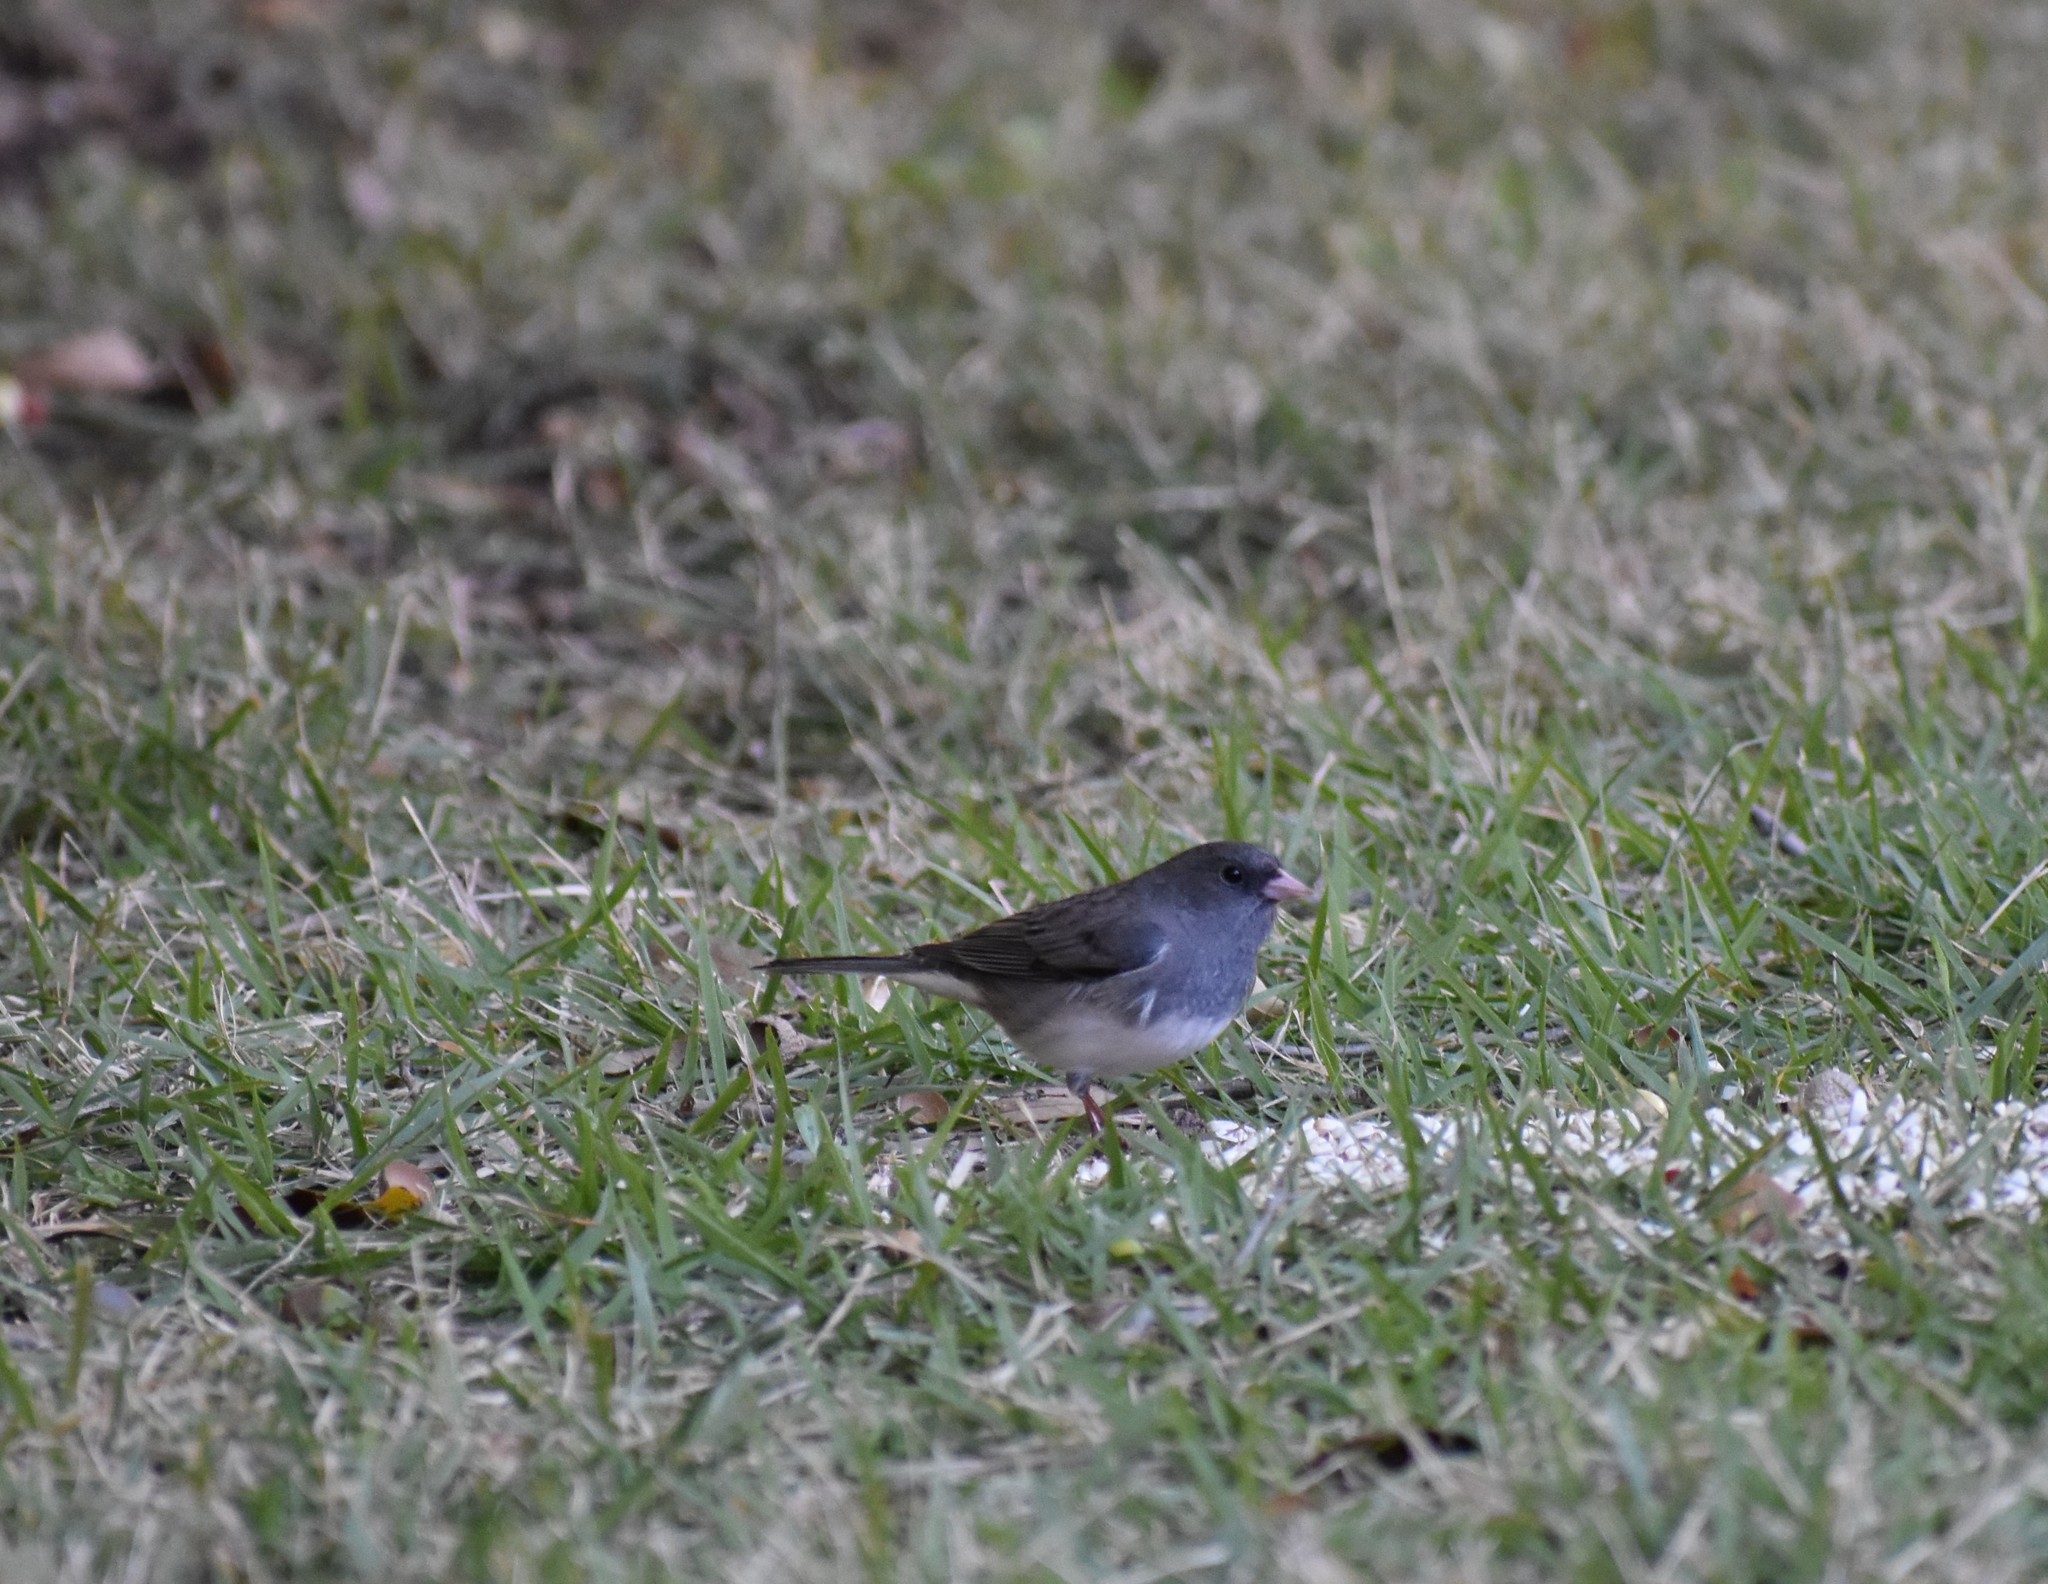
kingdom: Animalia
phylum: Chordata
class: Aves
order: Passeriformes
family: Passerellidae
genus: Junco
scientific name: Junco hyemalis
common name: Dark-eyed junco
